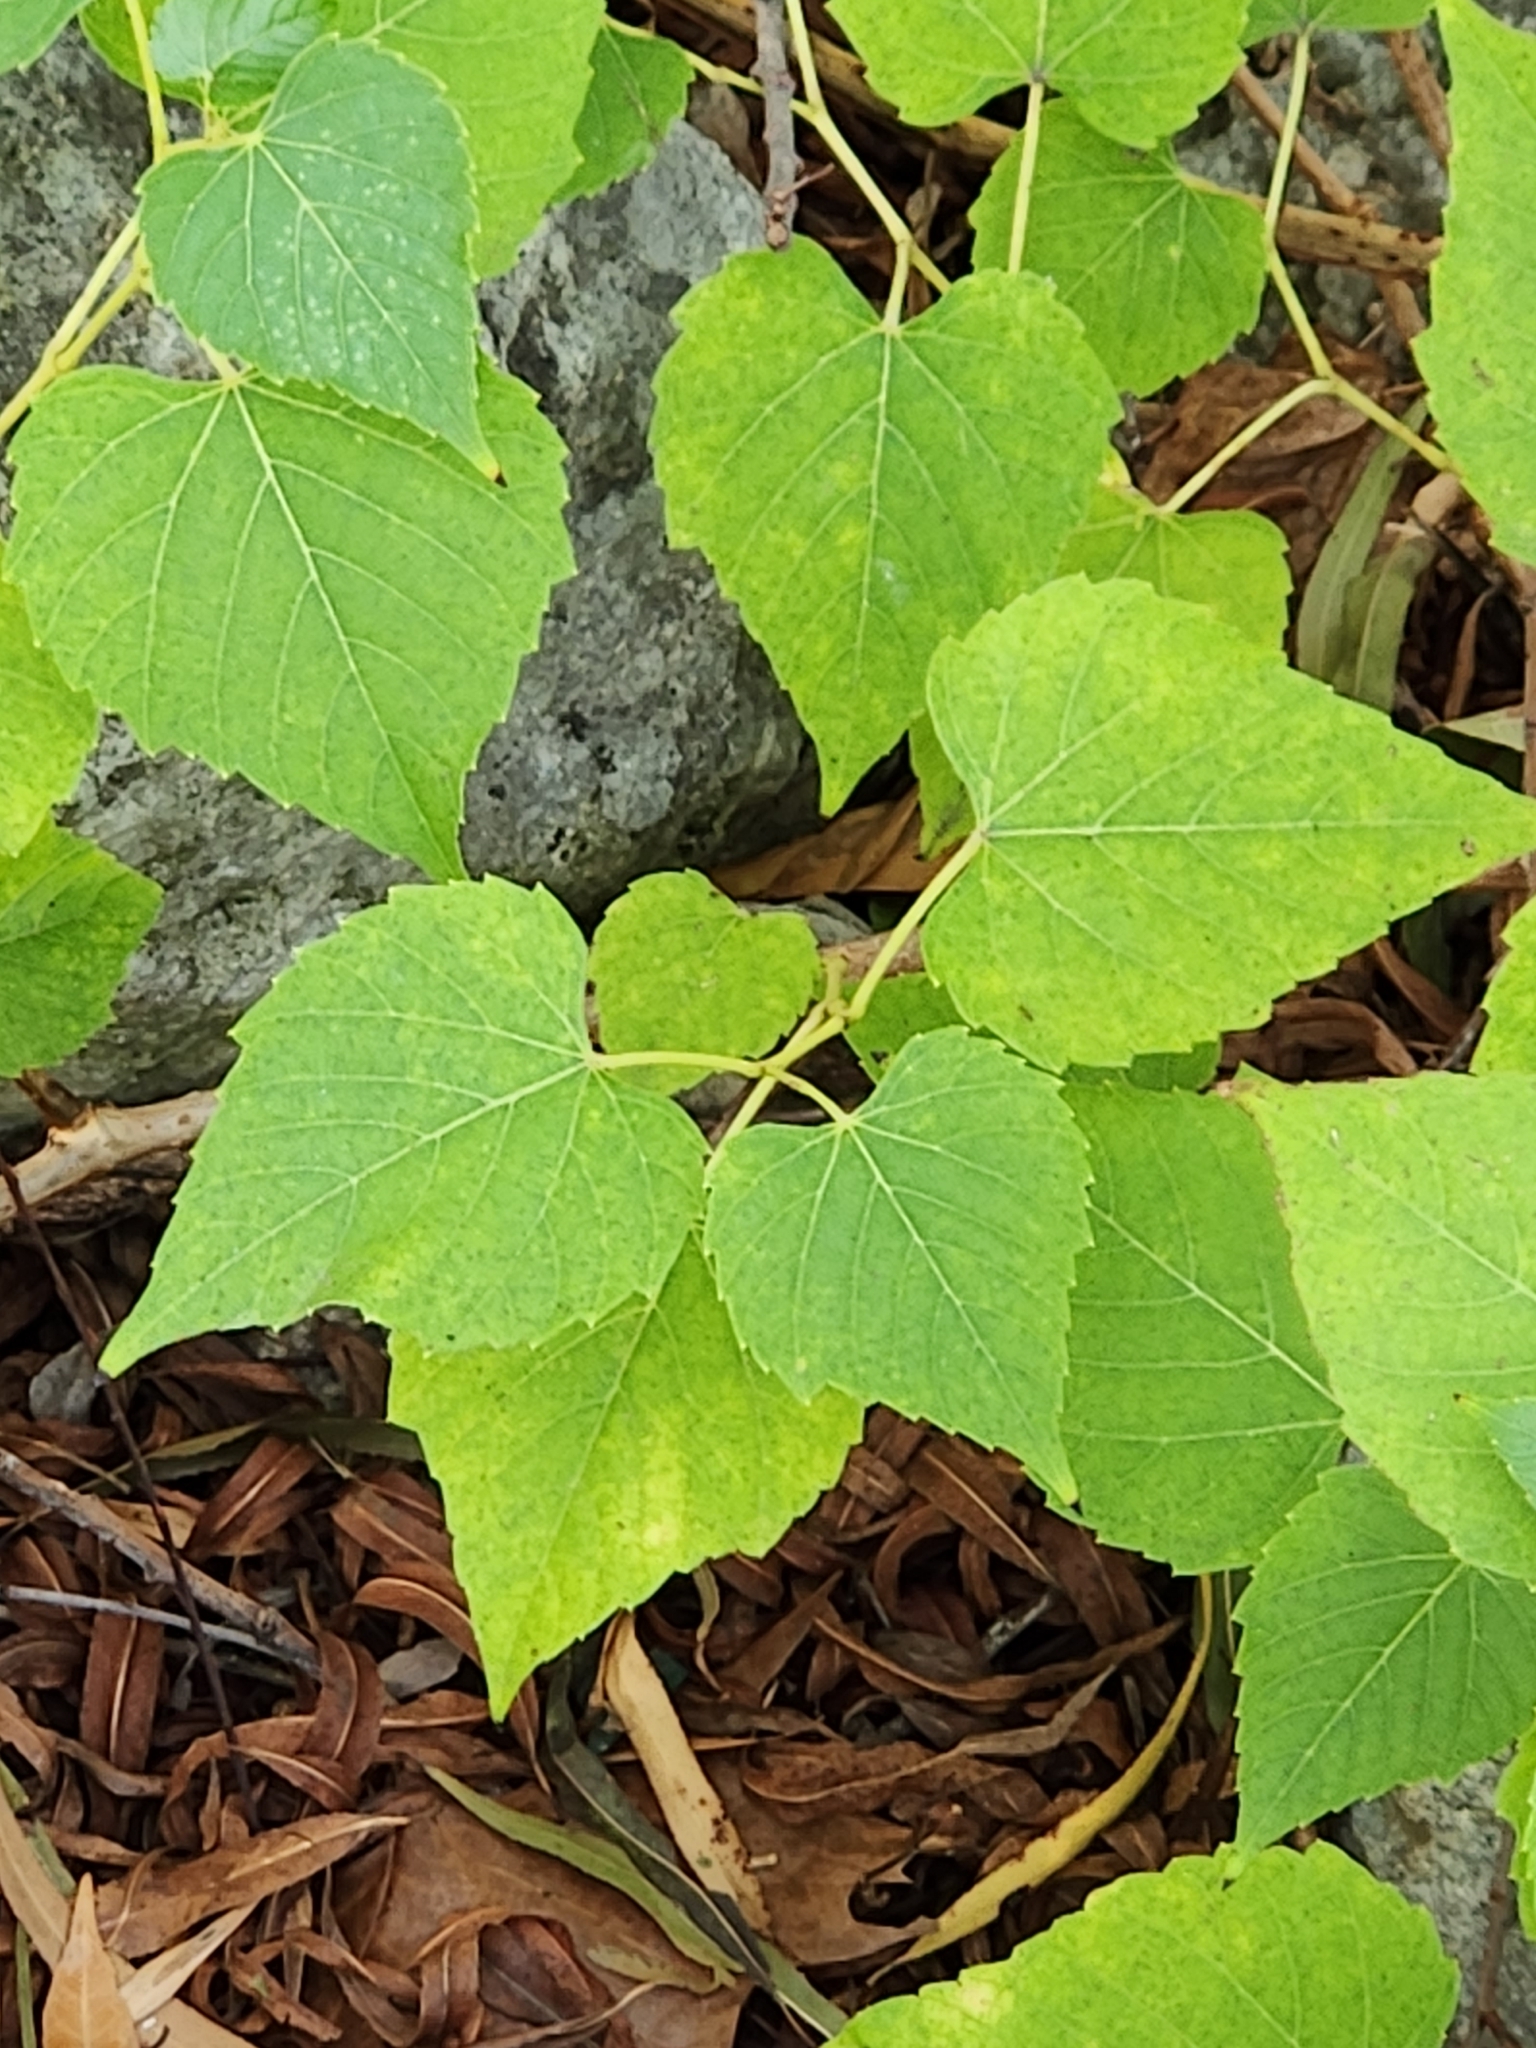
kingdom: Plantae
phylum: Tracheophyta
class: Magnoliopsida
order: Vitales
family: Vitaceae
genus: Ampelopsis
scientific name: Ampelopsis cordata
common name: Heart-leaf ampelopsis
